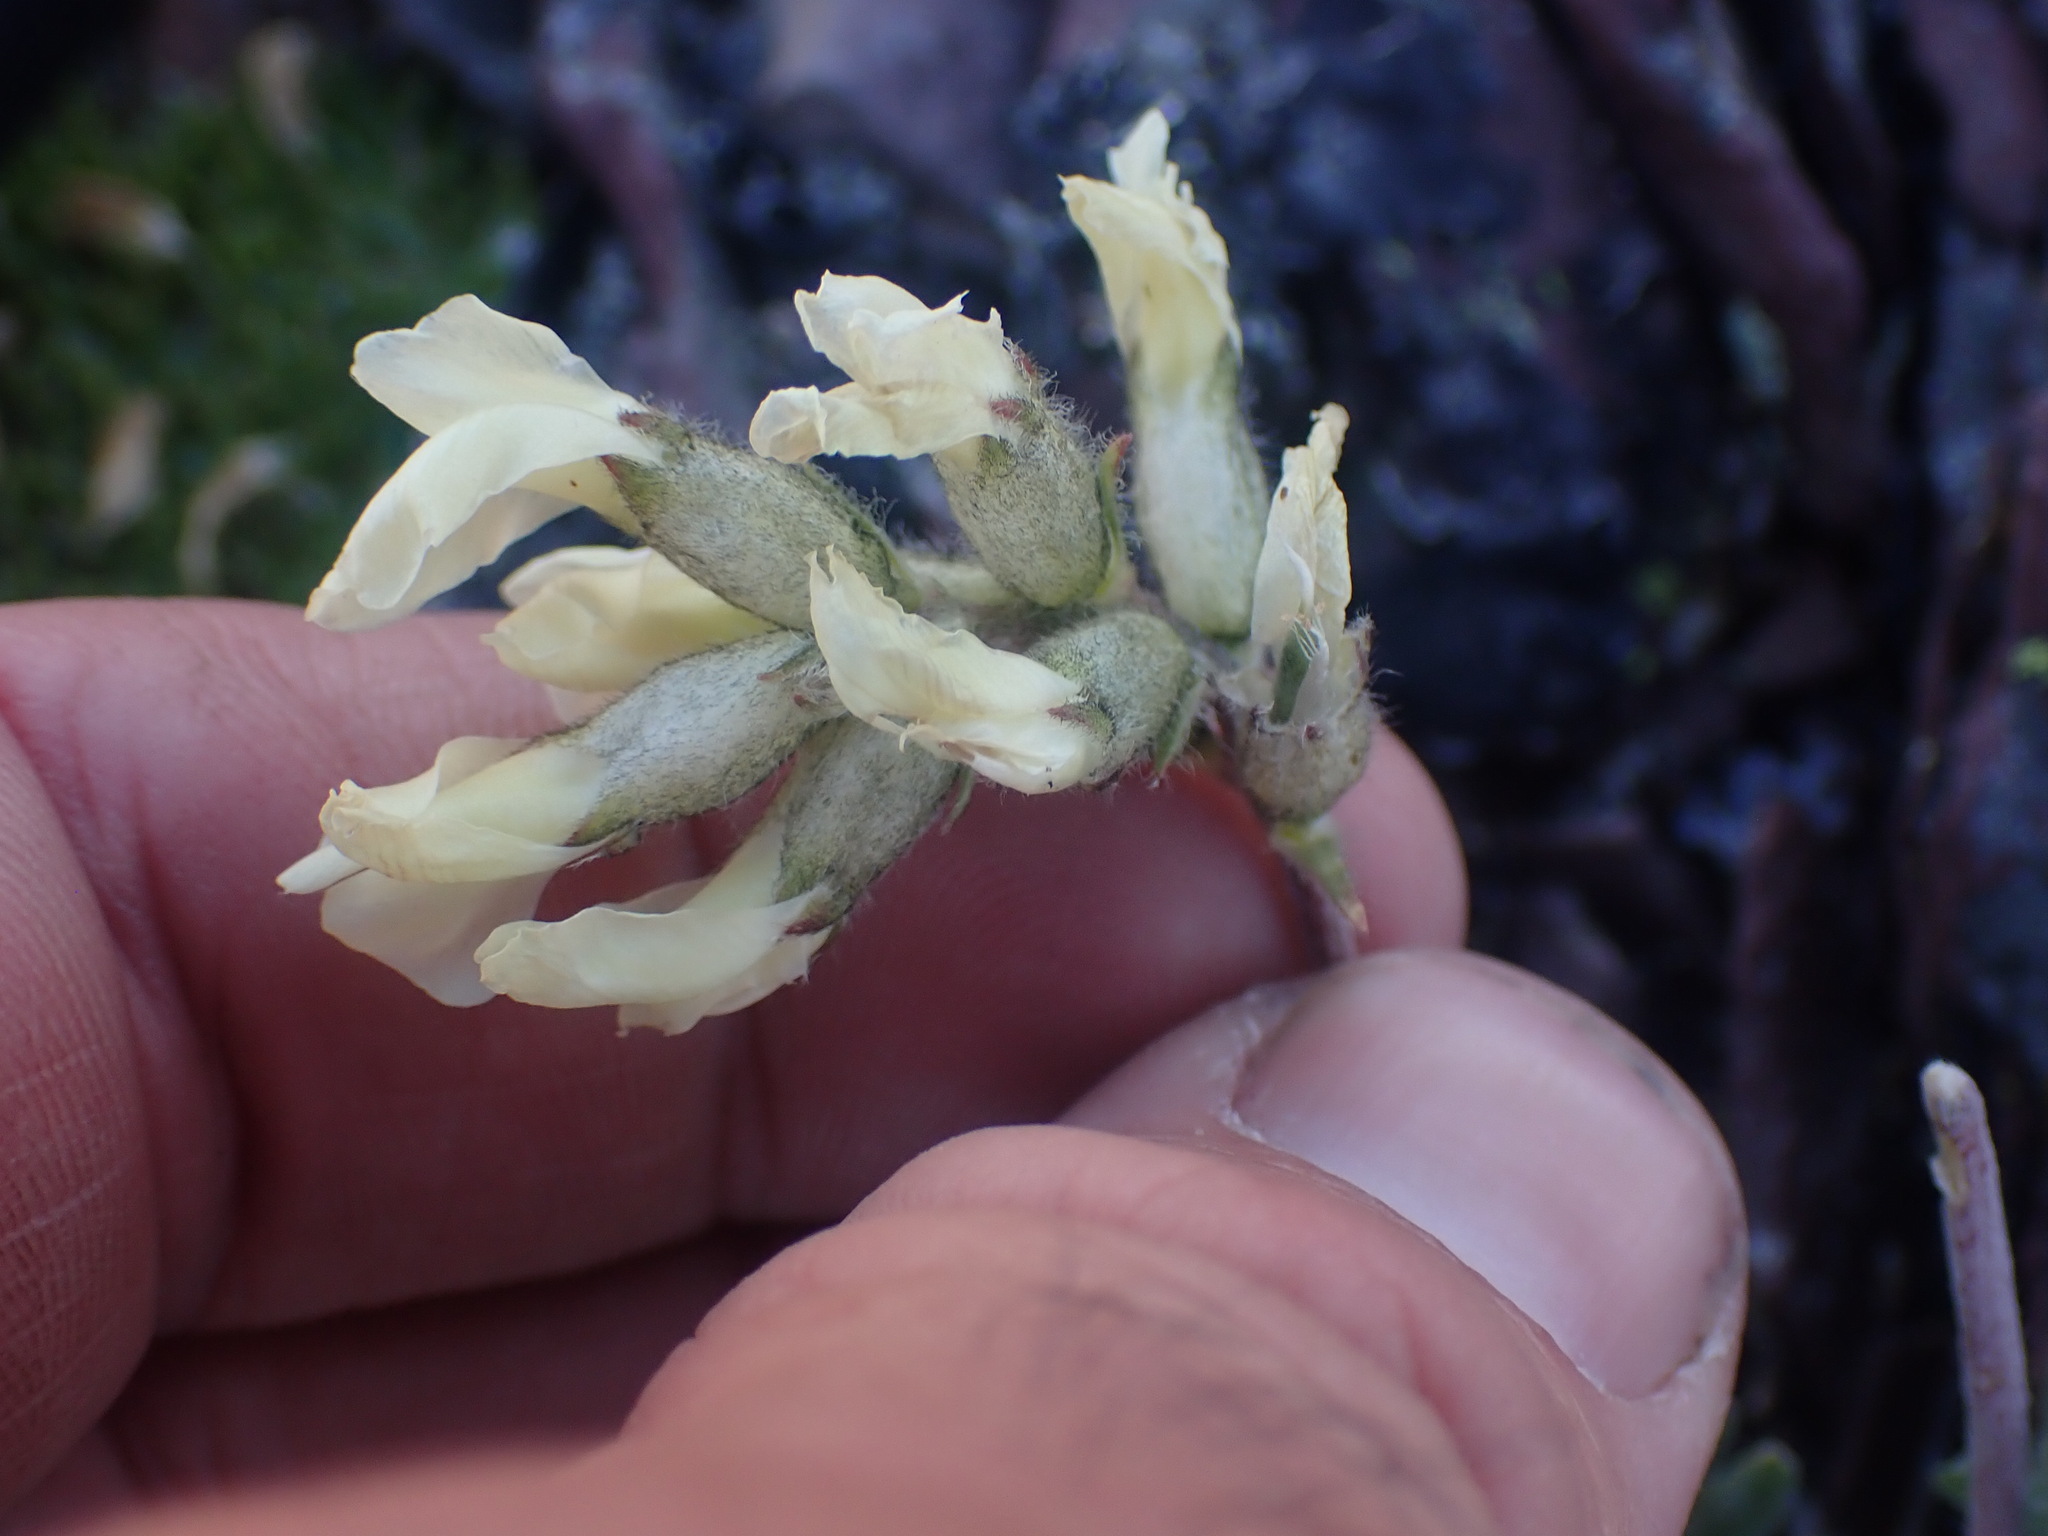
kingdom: Plantae
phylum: Tracheophyta
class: Magnoliopsida
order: Fabales
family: Fabaceae
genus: Oxytropis
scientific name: Oxytropis campestris
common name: Field locoweed
